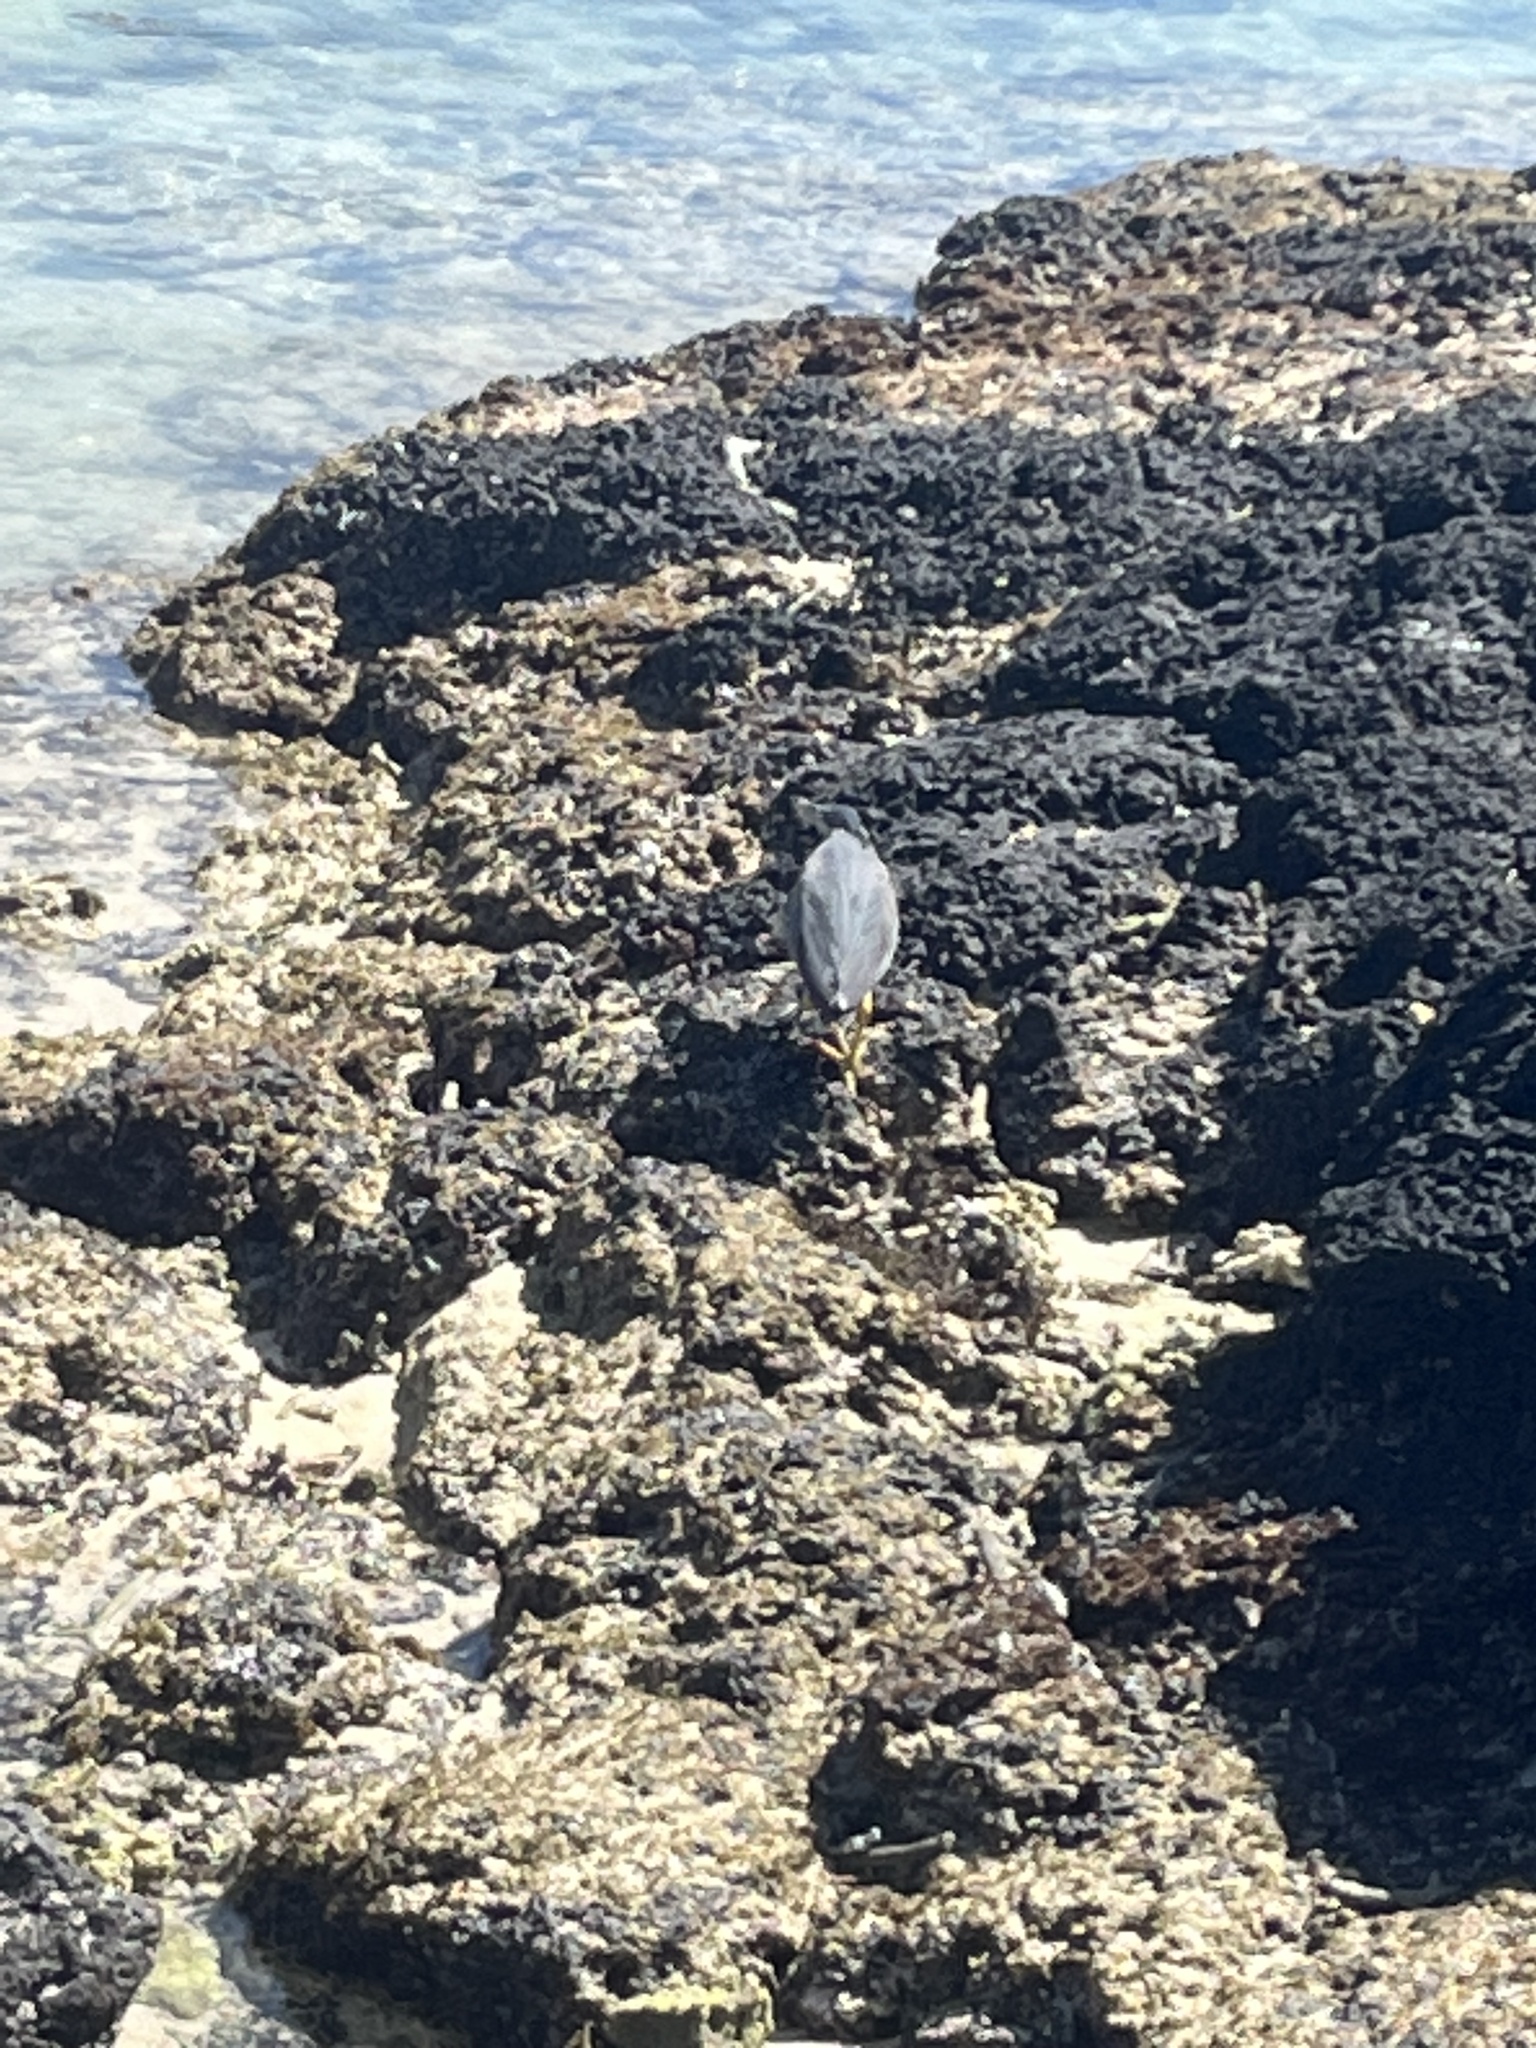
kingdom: Animalia
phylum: Chordata
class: Aves
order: Pelecaniformes
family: Ardeidae
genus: Butorides
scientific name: Butorides striata
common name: Striated heron
